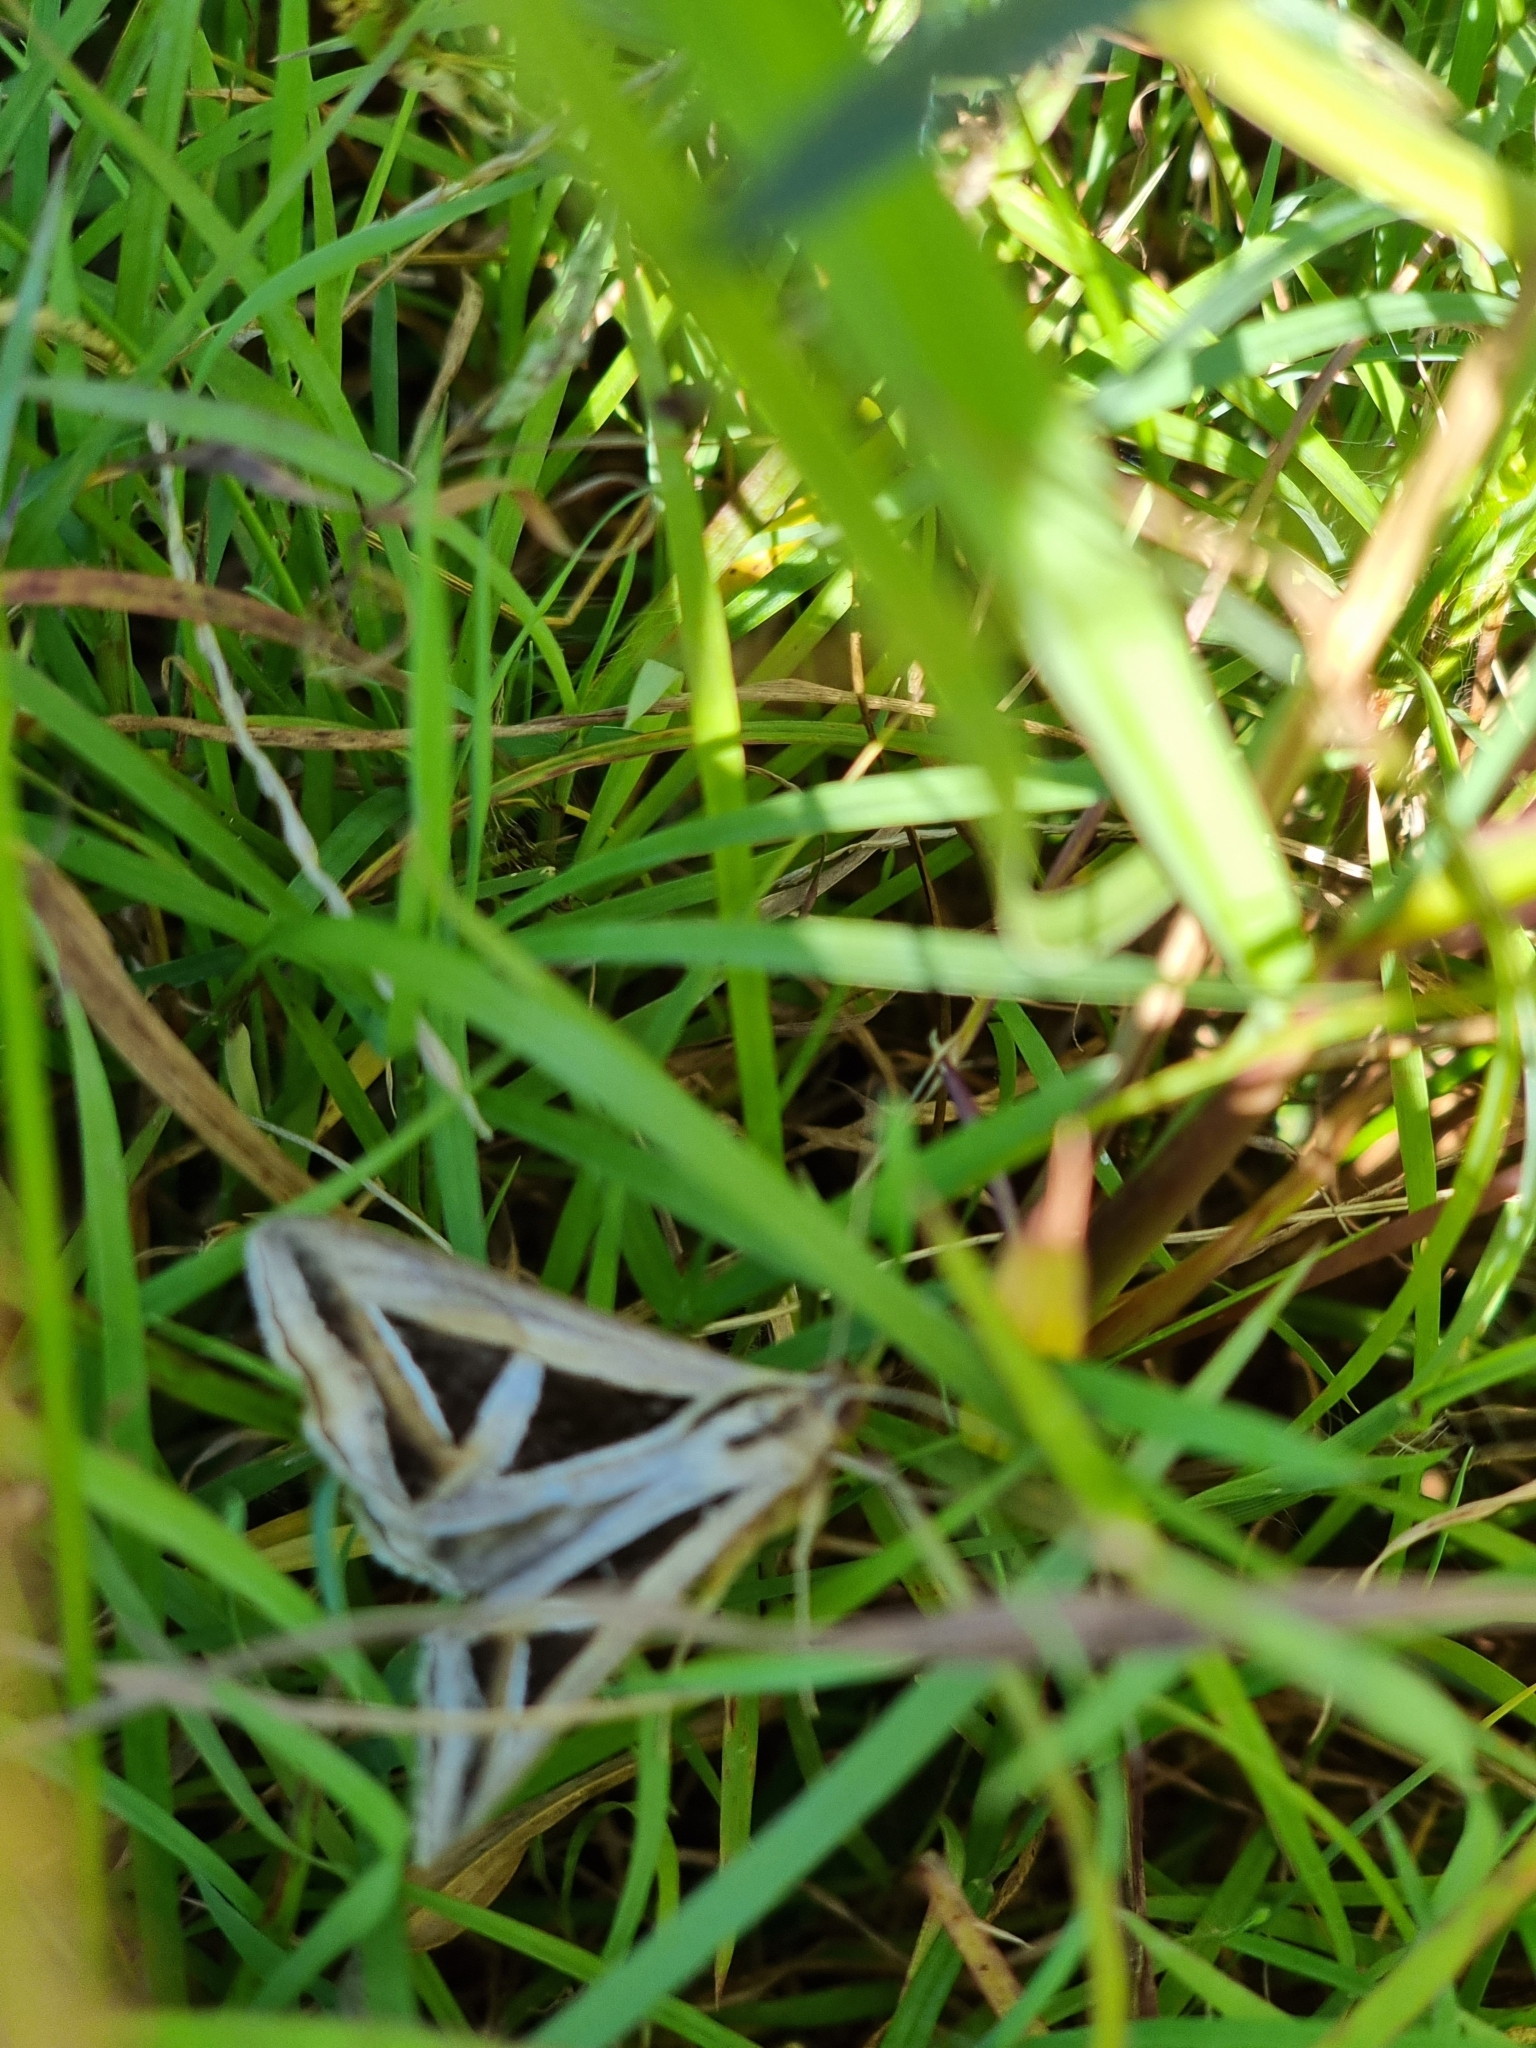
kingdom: Animalia
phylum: Arthropoda
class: Insecta
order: Lepidoptera
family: Erebidae
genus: Trigonodes
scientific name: Trigonodes hyppasia
